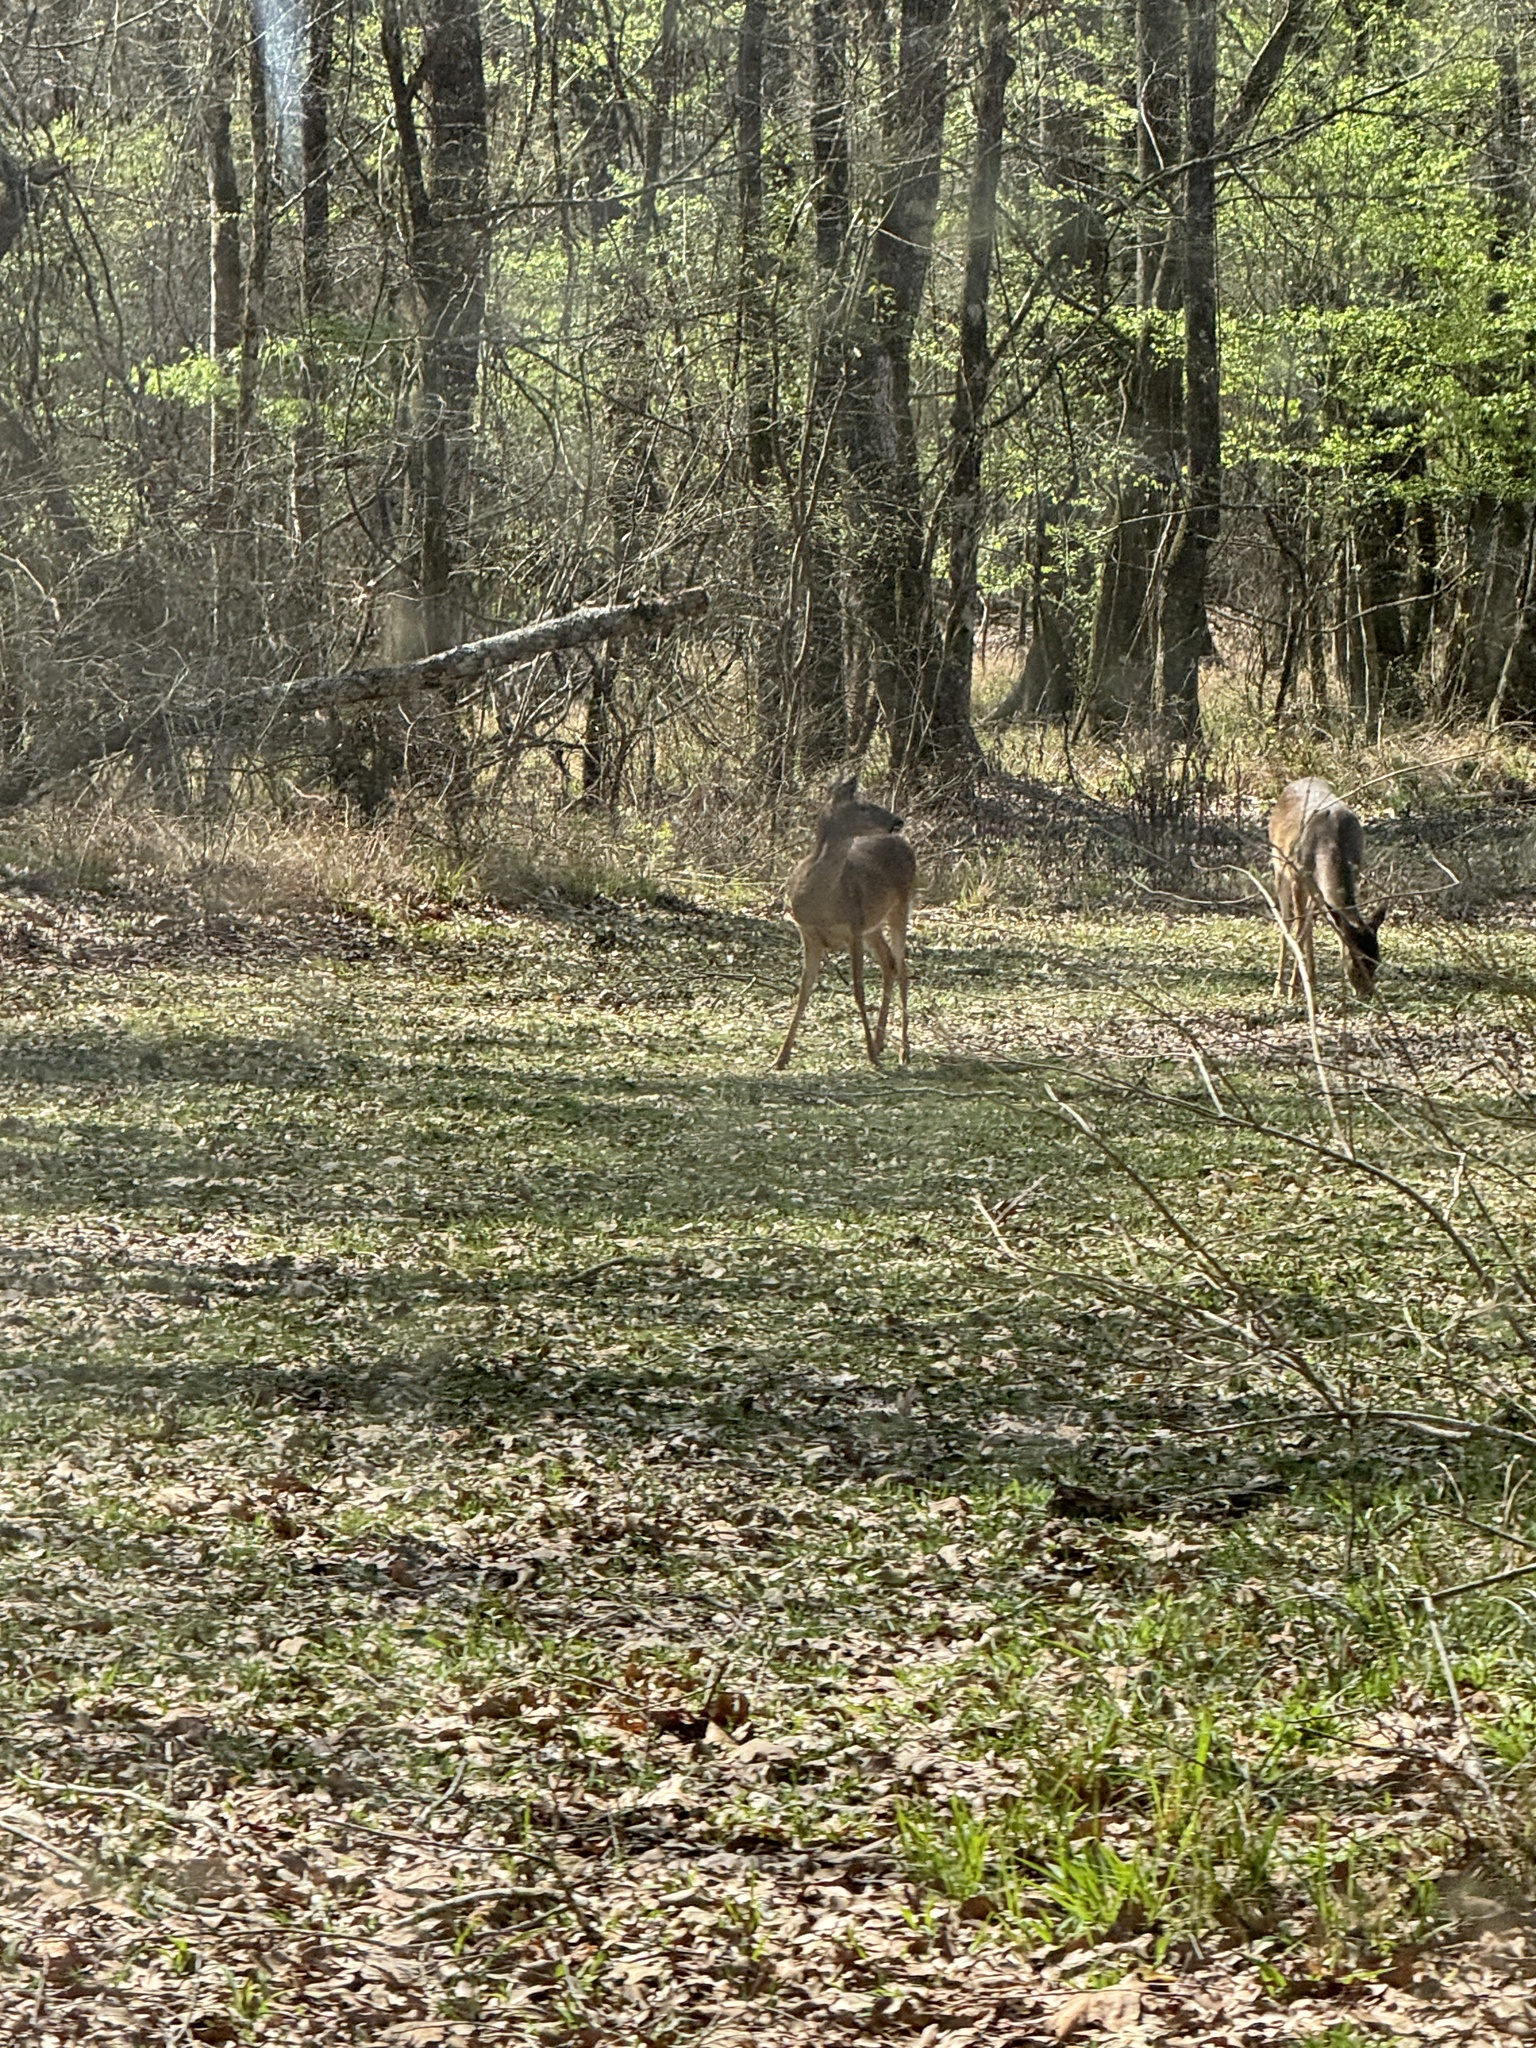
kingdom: Animalia
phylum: Chordata
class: Mammalia
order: Artiodactyla
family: Cervidae
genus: Odocoileus
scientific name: Odocoileus virginianus
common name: White-tailed deer
